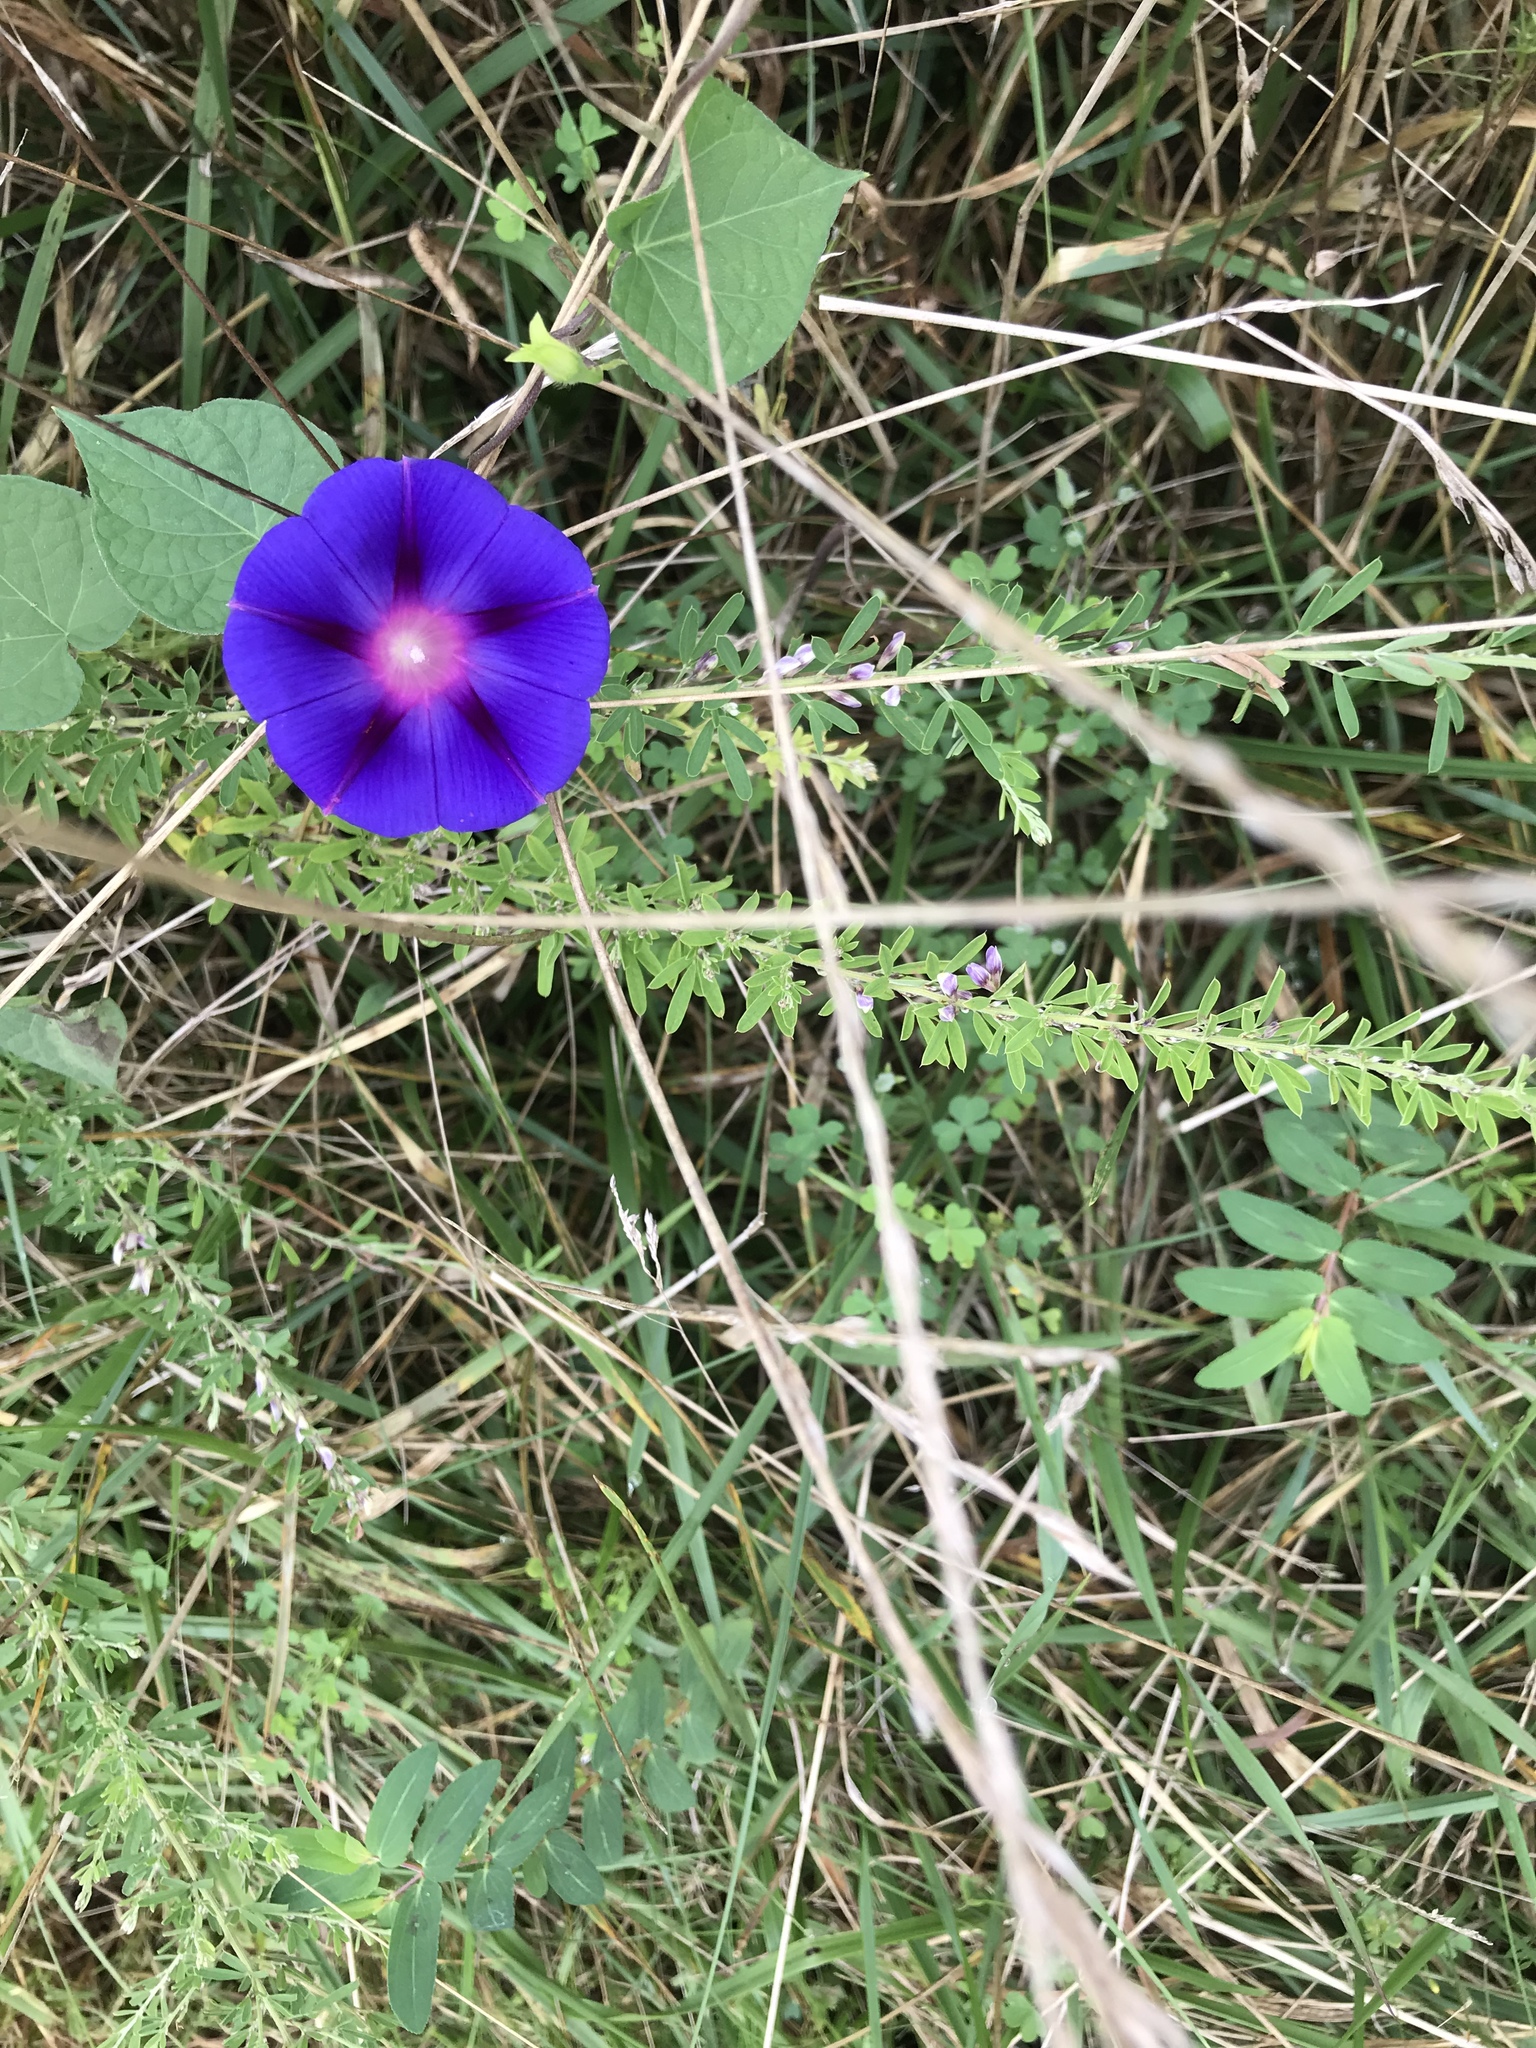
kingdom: Plantae
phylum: Tracheophyta
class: Magnoliopsida
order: Solanales
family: Convolvulaceae
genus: Ipomoea
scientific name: Ipomoea purpurea
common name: Common morning-glory
